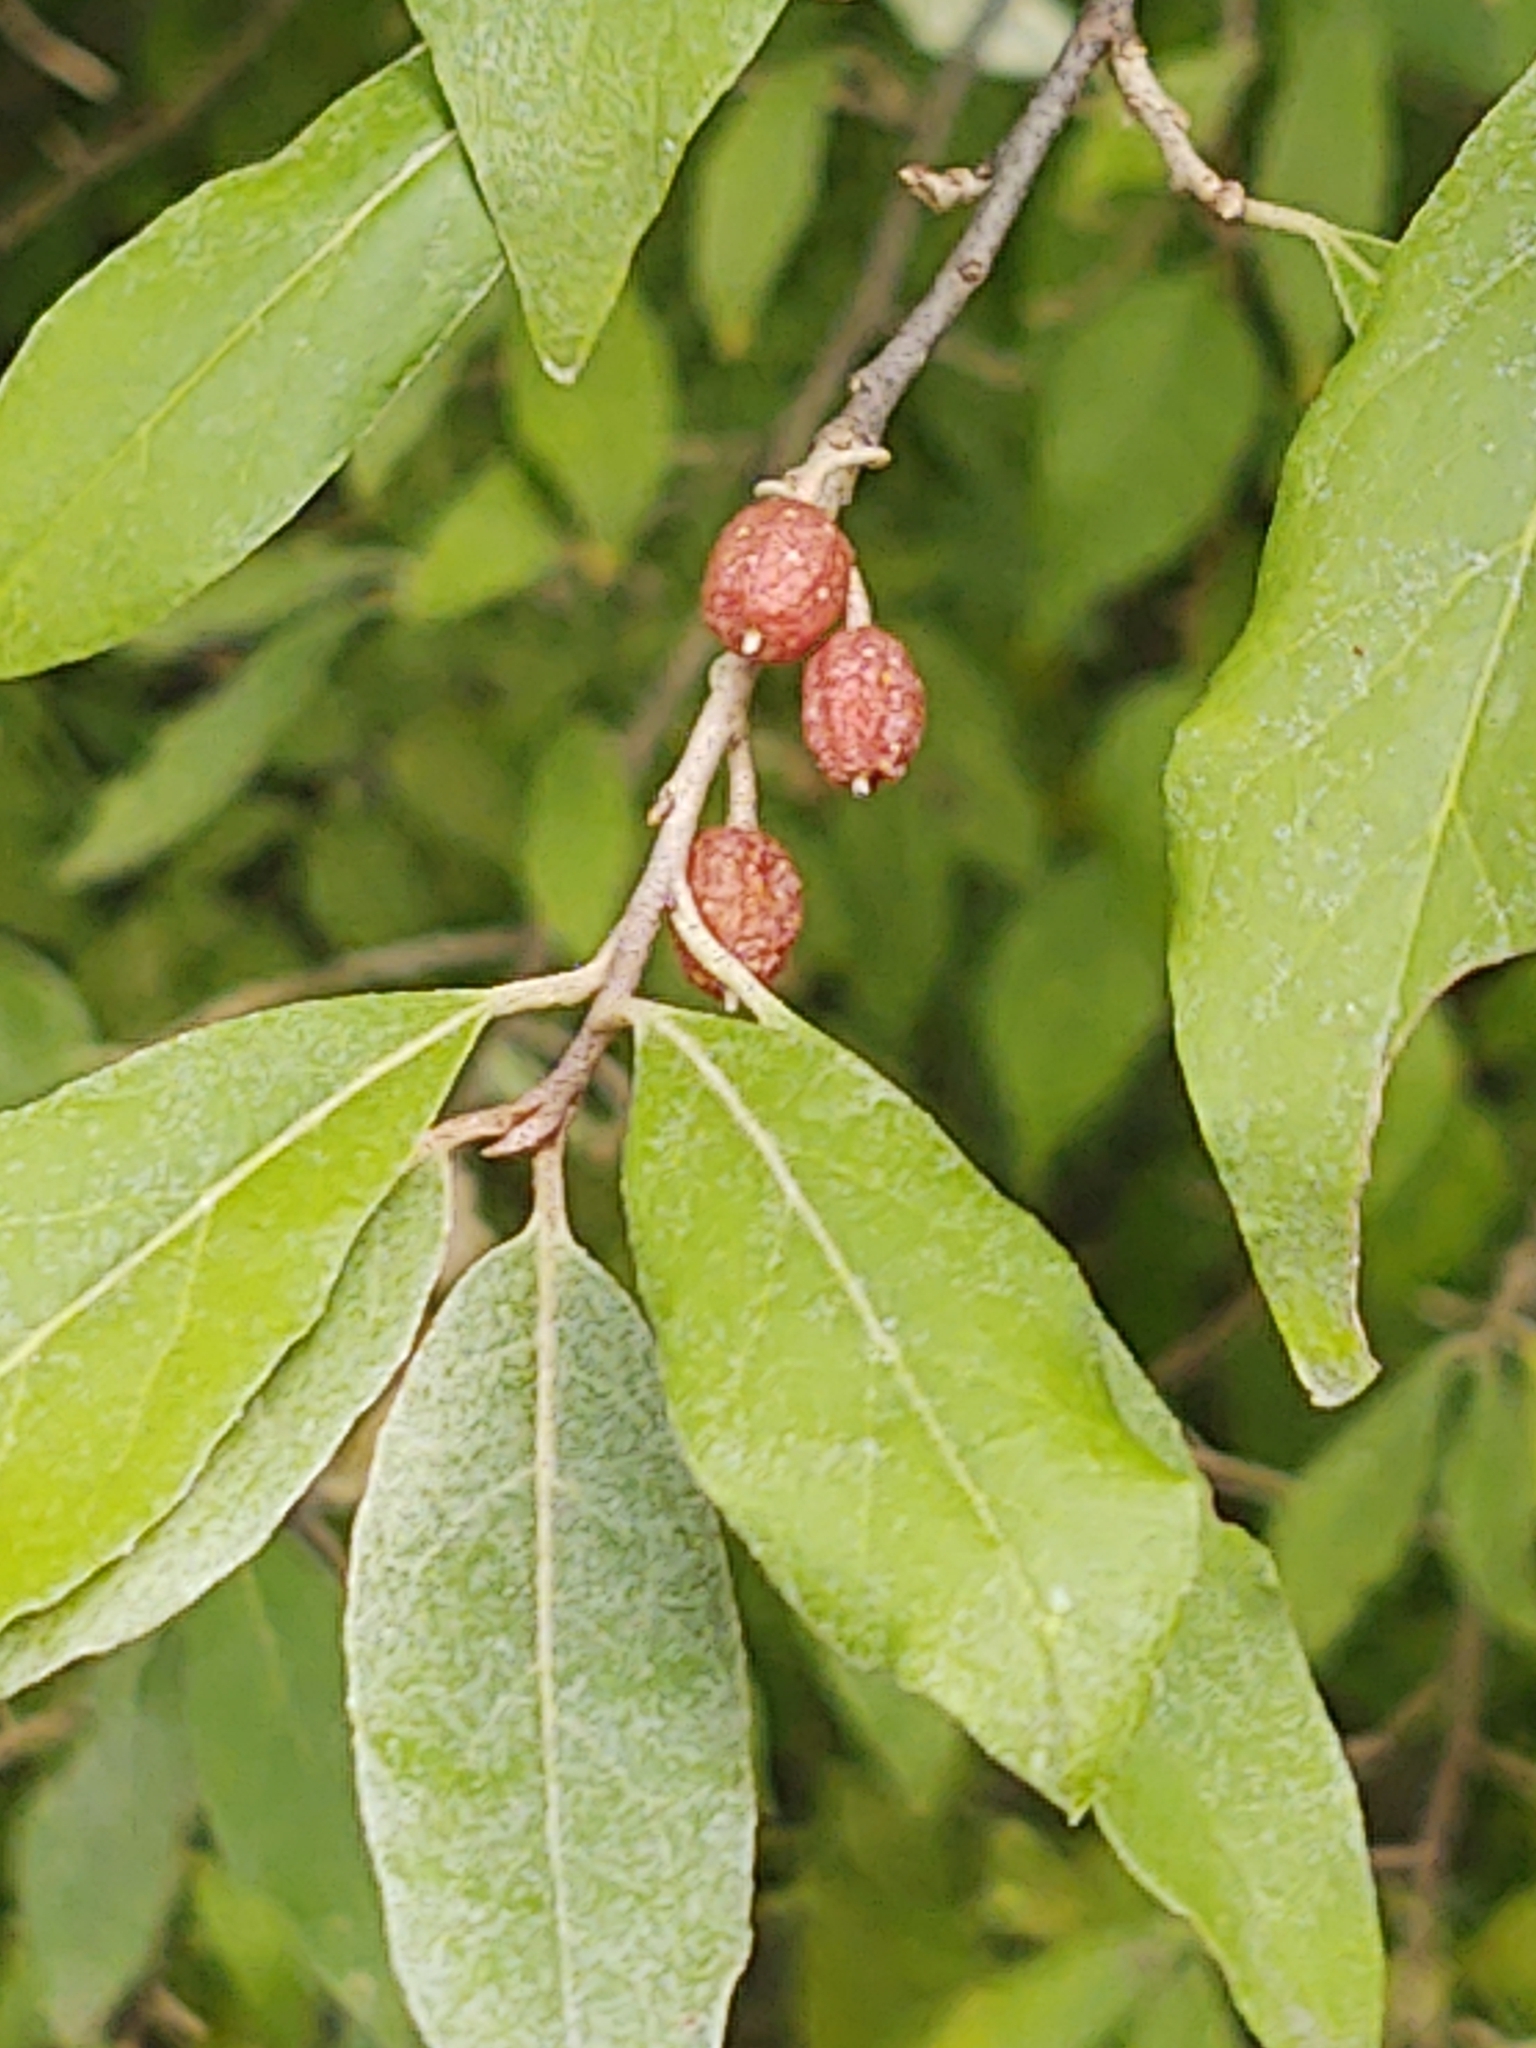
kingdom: Plantae
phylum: Tracheophyta
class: Magnoliopsida
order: Rosales
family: Elaeagnaceae
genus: Elaeagnus
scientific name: Elaeagnus umbellata
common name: Autumn olive
